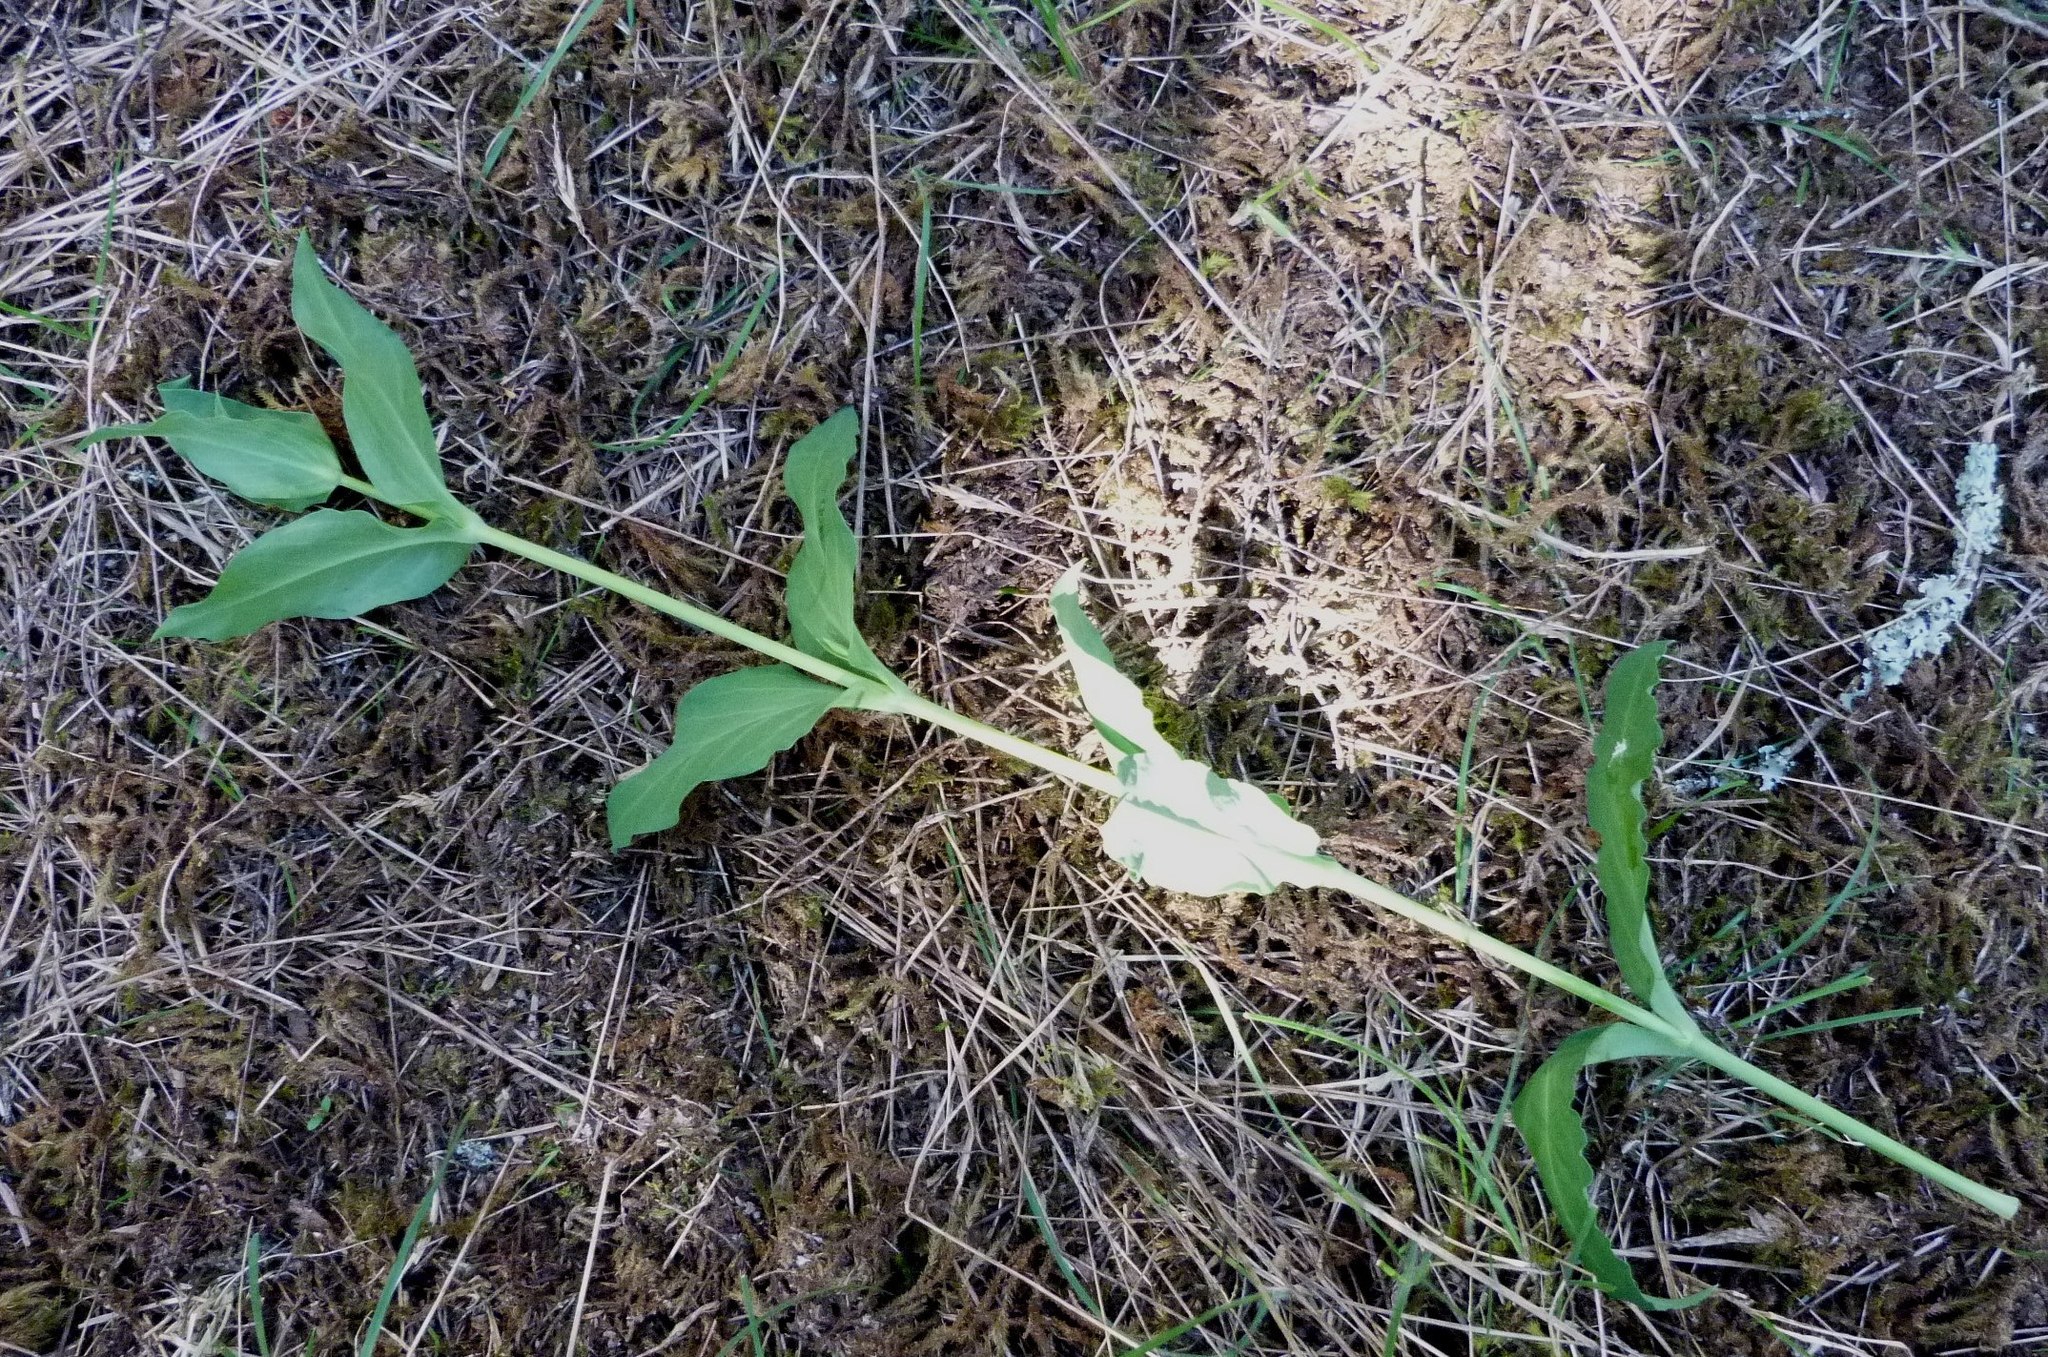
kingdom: Plantae
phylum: Tracheophyta
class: Magnoliopsida
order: Dipsacales
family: Caprifoliaceae
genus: Centranthus
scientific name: Centranthus ruber
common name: Red valerian
